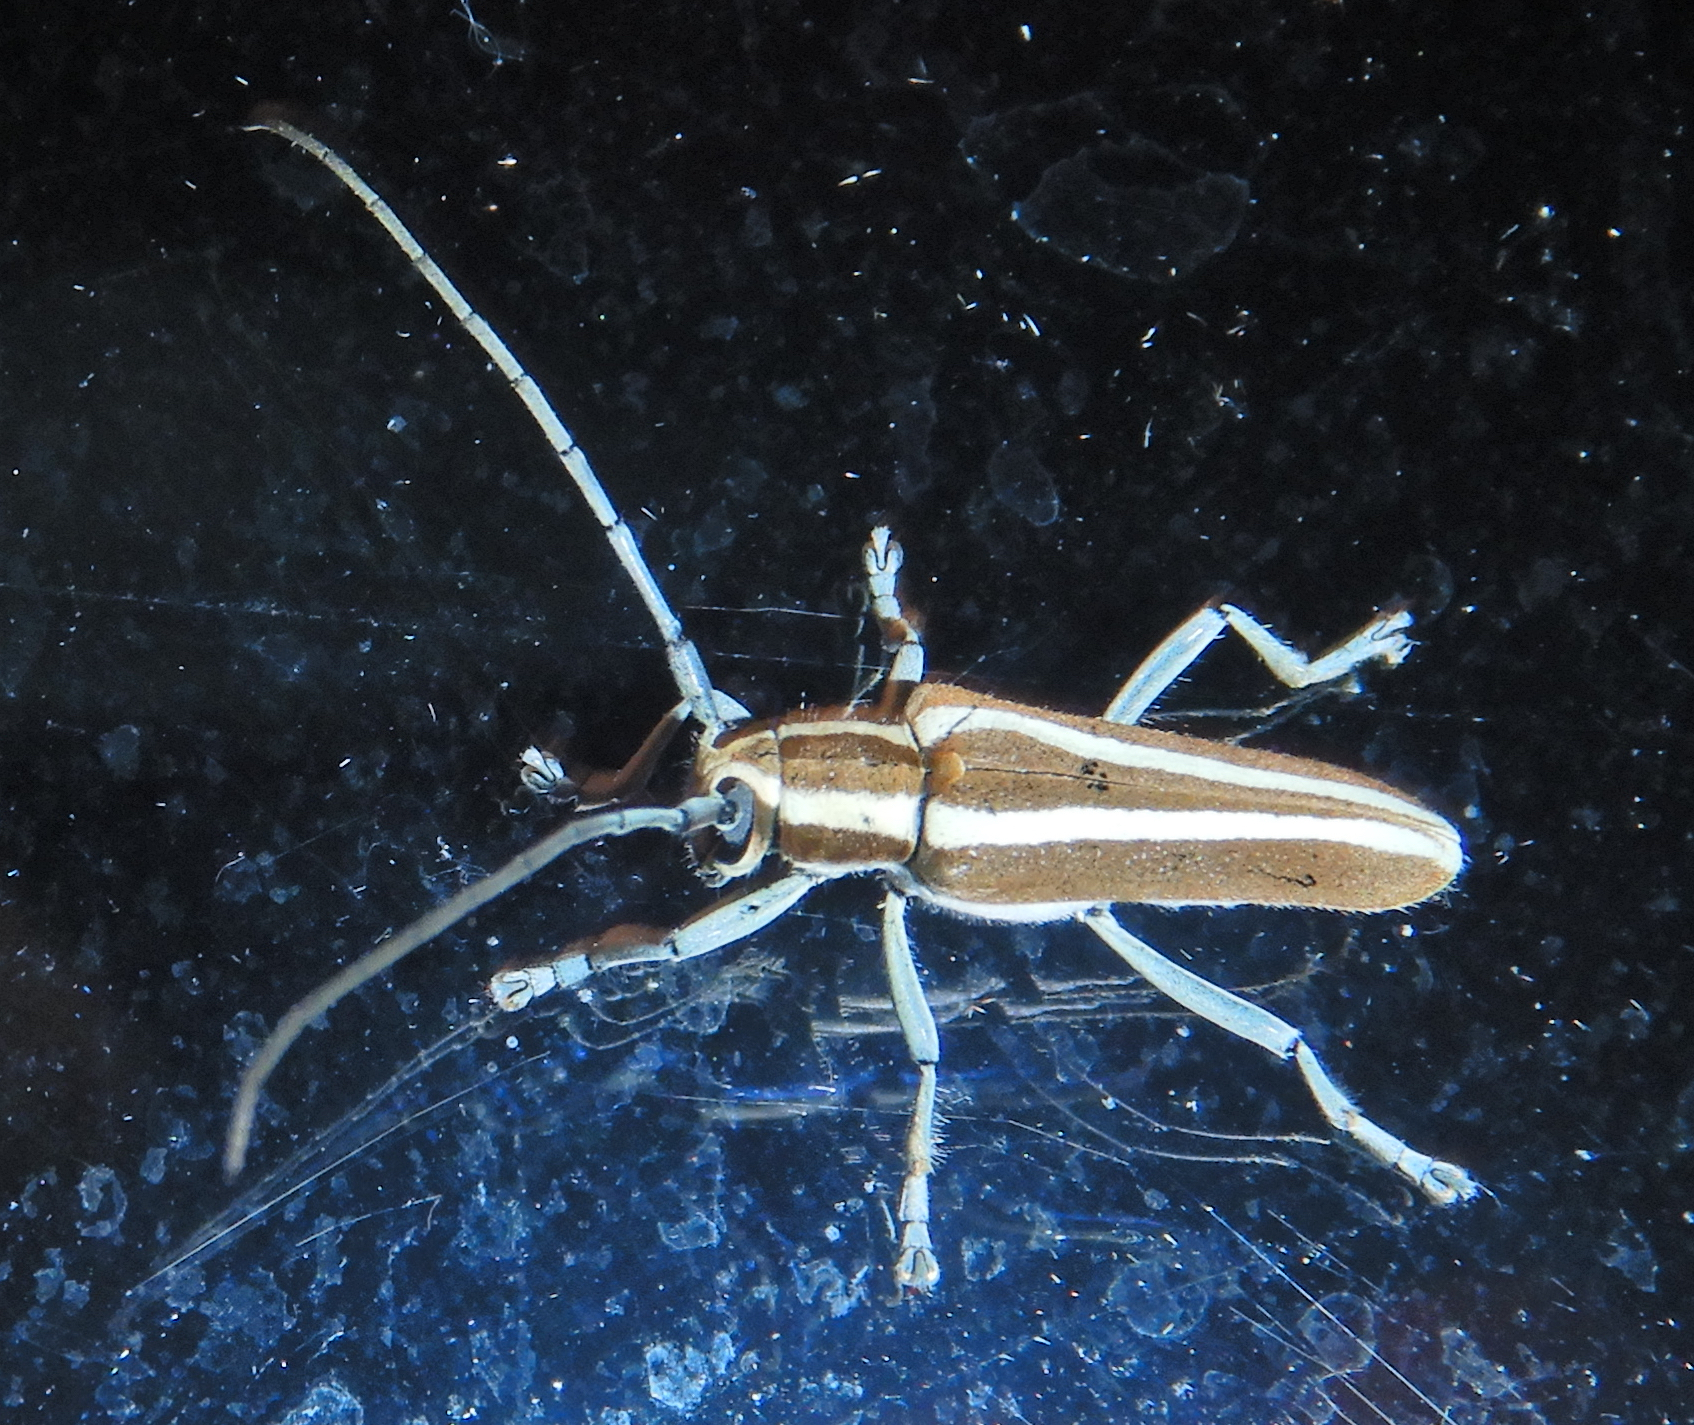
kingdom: Animalia
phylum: Arthropoda
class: Insecta
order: Coleoptera
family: Cerambycidae
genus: Saperda
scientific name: Saperda candida
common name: Round-headed borer
